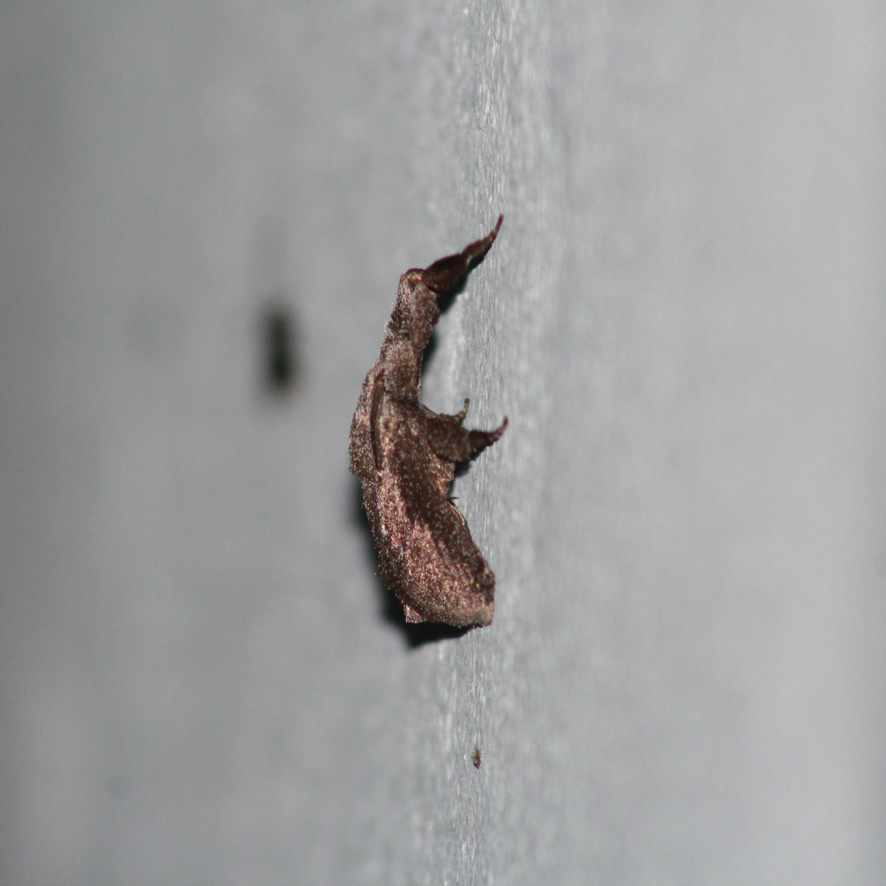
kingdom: Animalia
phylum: Arthropoda
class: Insecta
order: Lepidoptera
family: Limacodidae
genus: Perola
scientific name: Perola repetita
